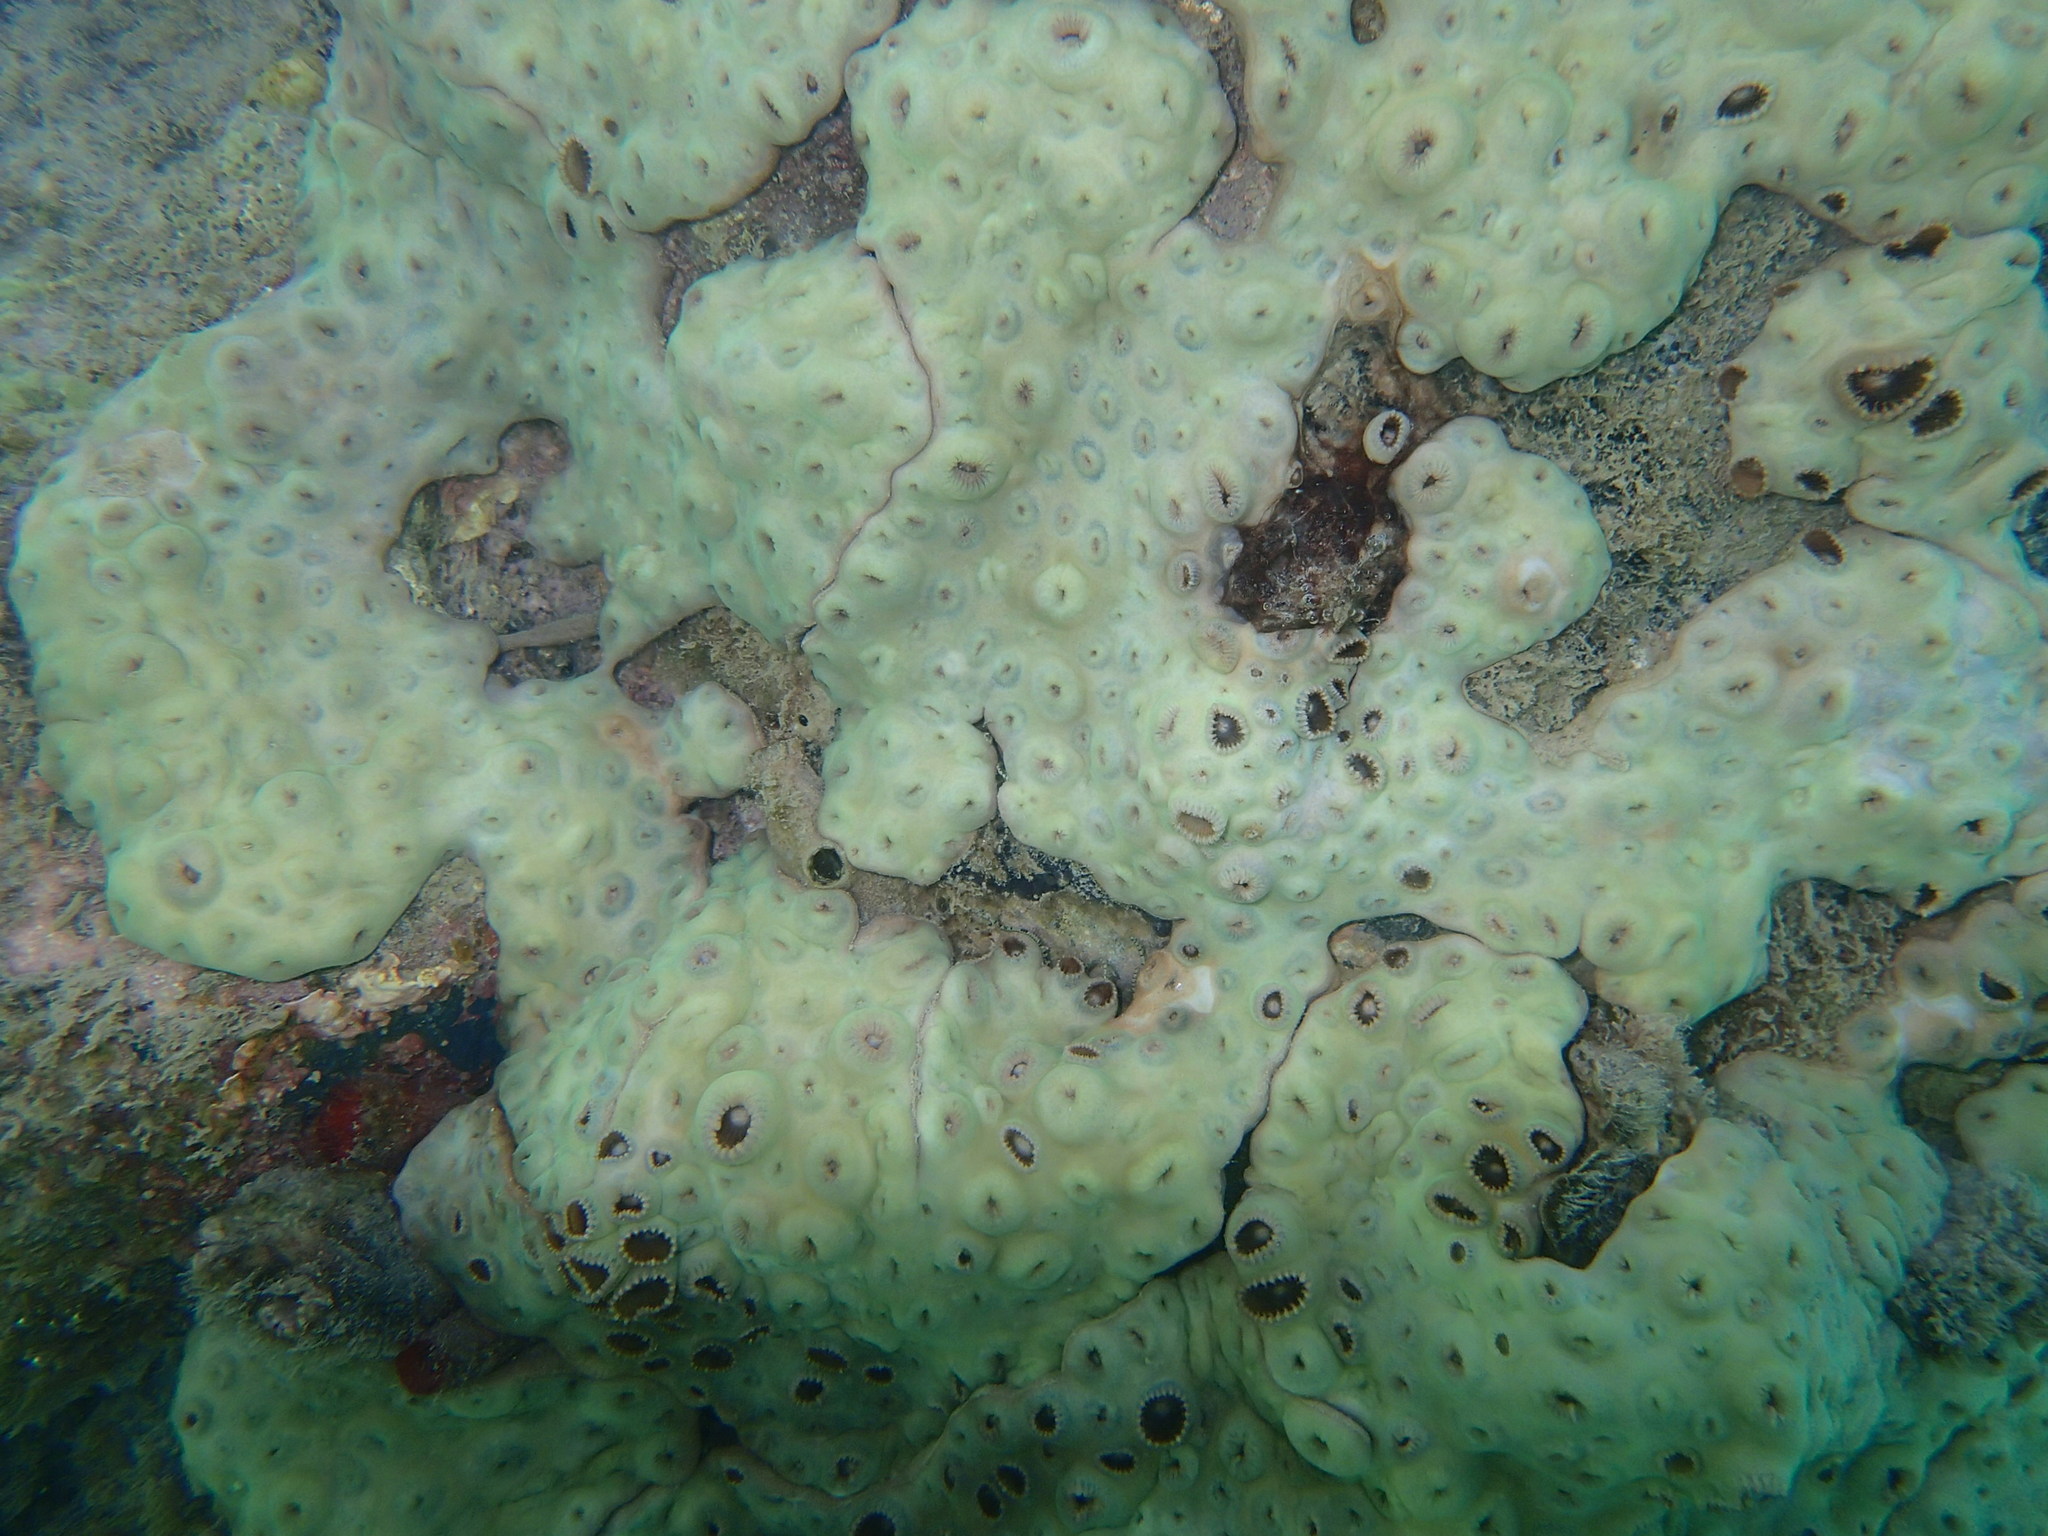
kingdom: Animalia
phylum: Cnidaria
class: Anthozoa
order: Zoantharia
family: Sphenopidae
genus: Palythoa
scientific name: Palythoa tuberculosa
